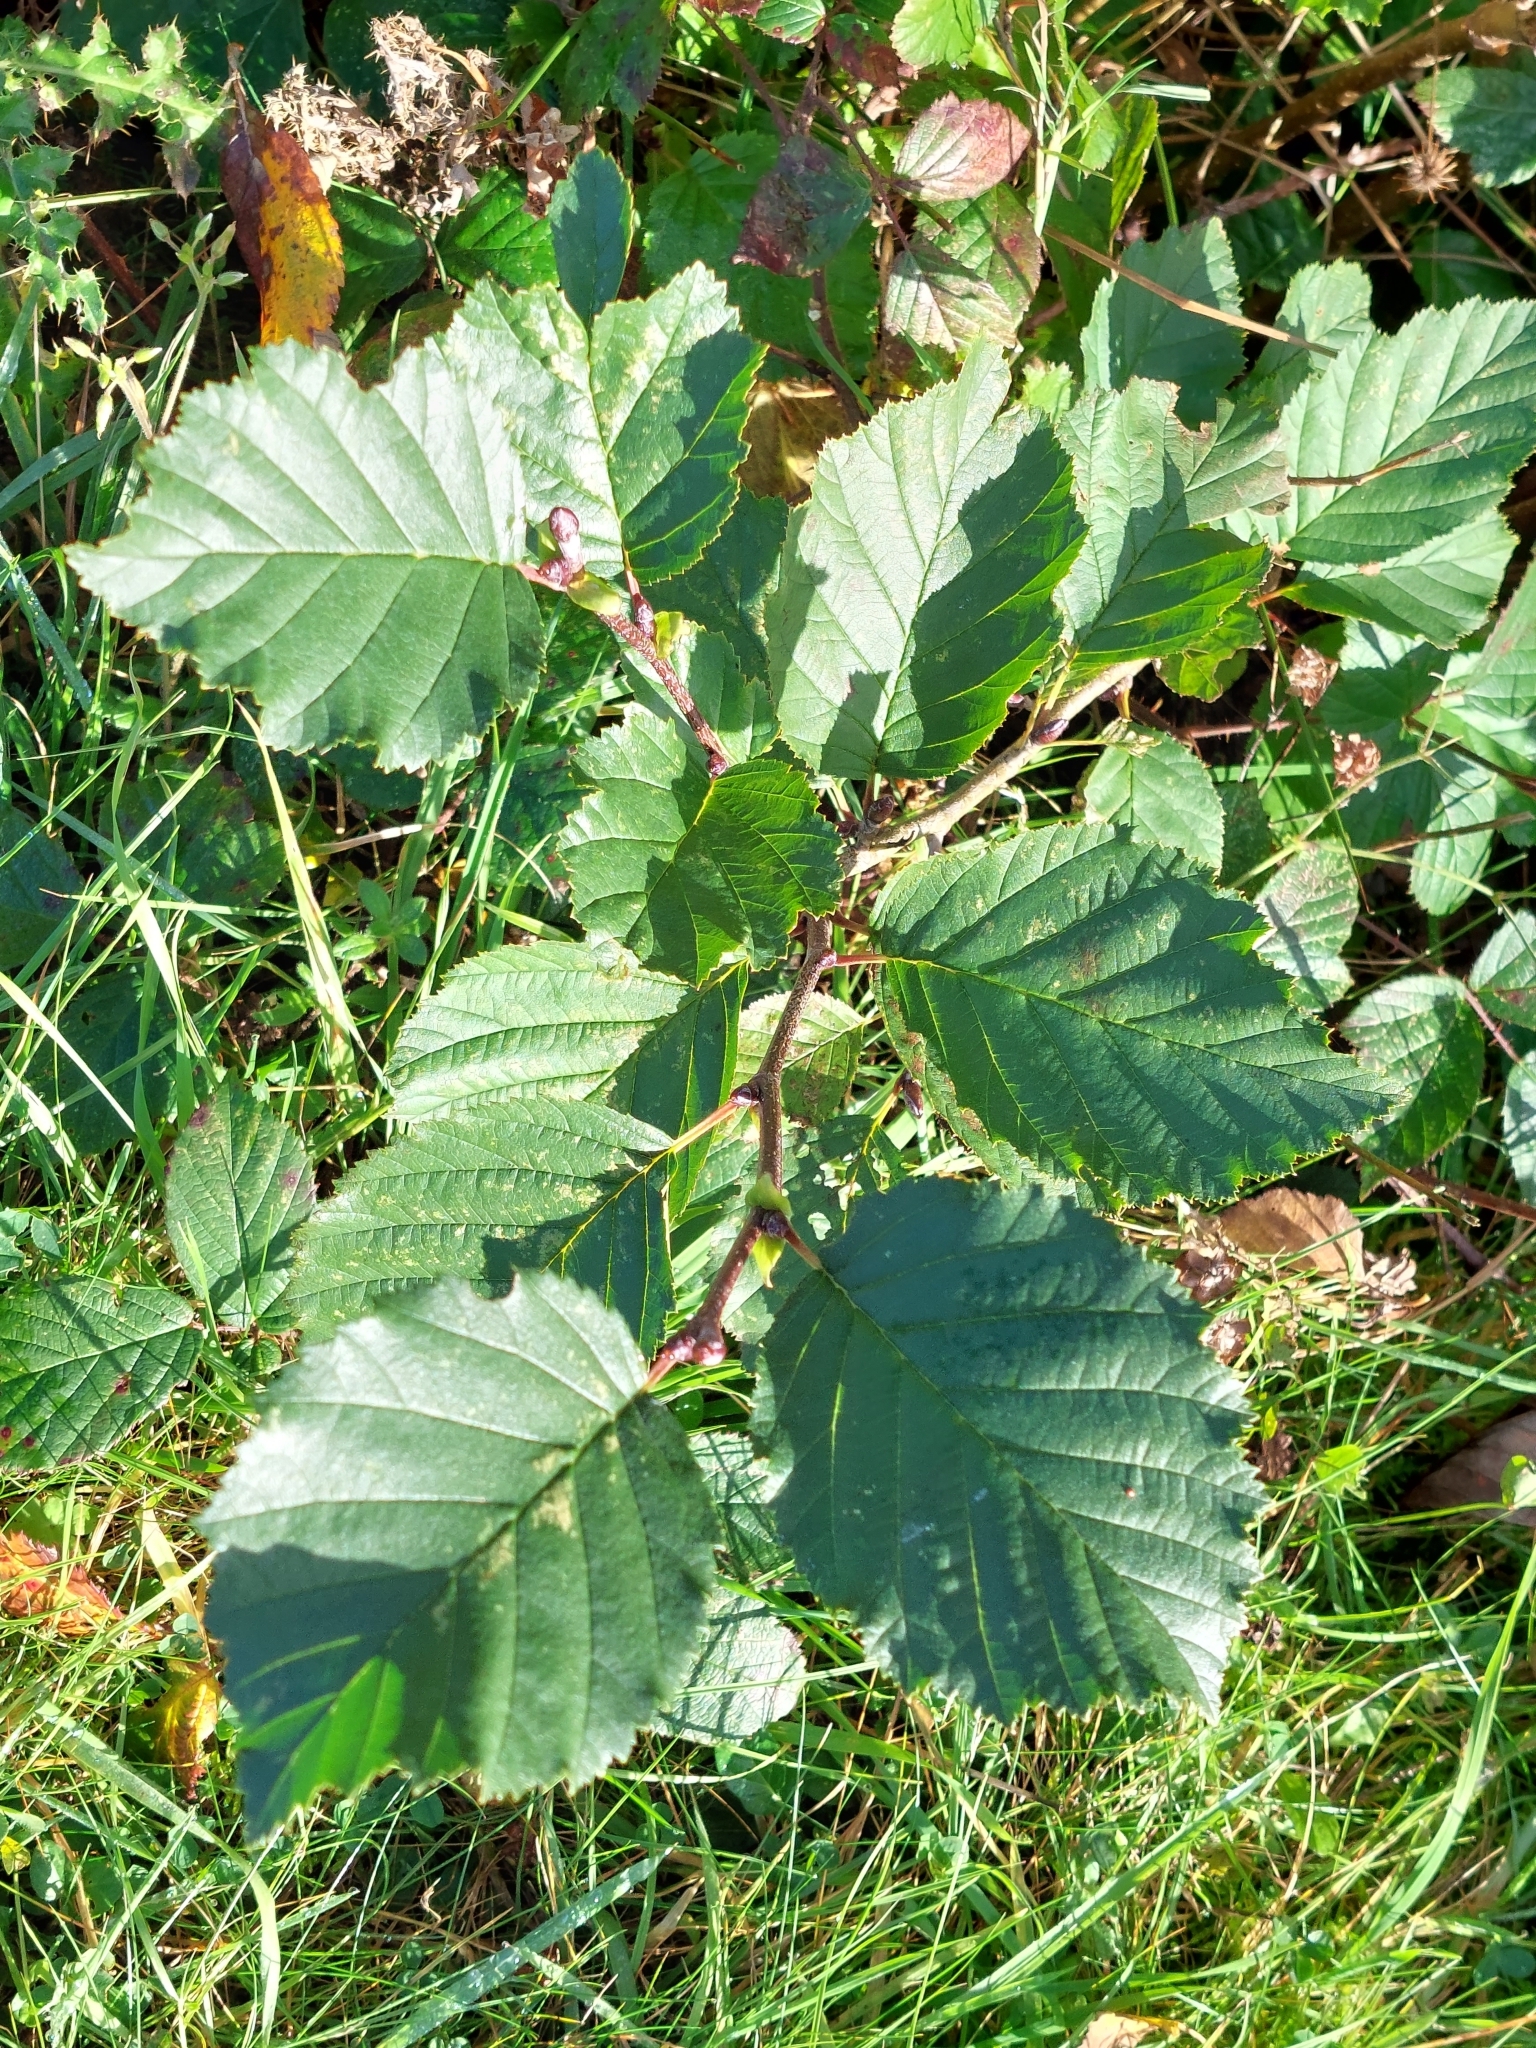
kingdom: Plantae
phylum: Tracheophyta
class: Magnoliopsida
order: Fagales
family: Betulaceae
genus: Alnus
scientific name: Alnus glutinosa
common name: Black alder
